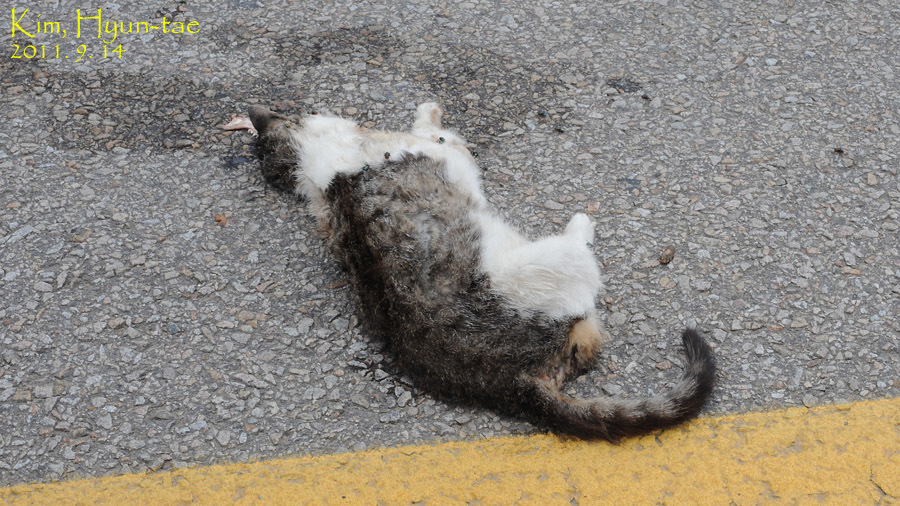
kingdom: Animalia
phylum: Chordata
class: Mammalia
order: Carnivora
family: Felidae
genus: Felis
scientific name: Felis catus
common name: Domestic cat
